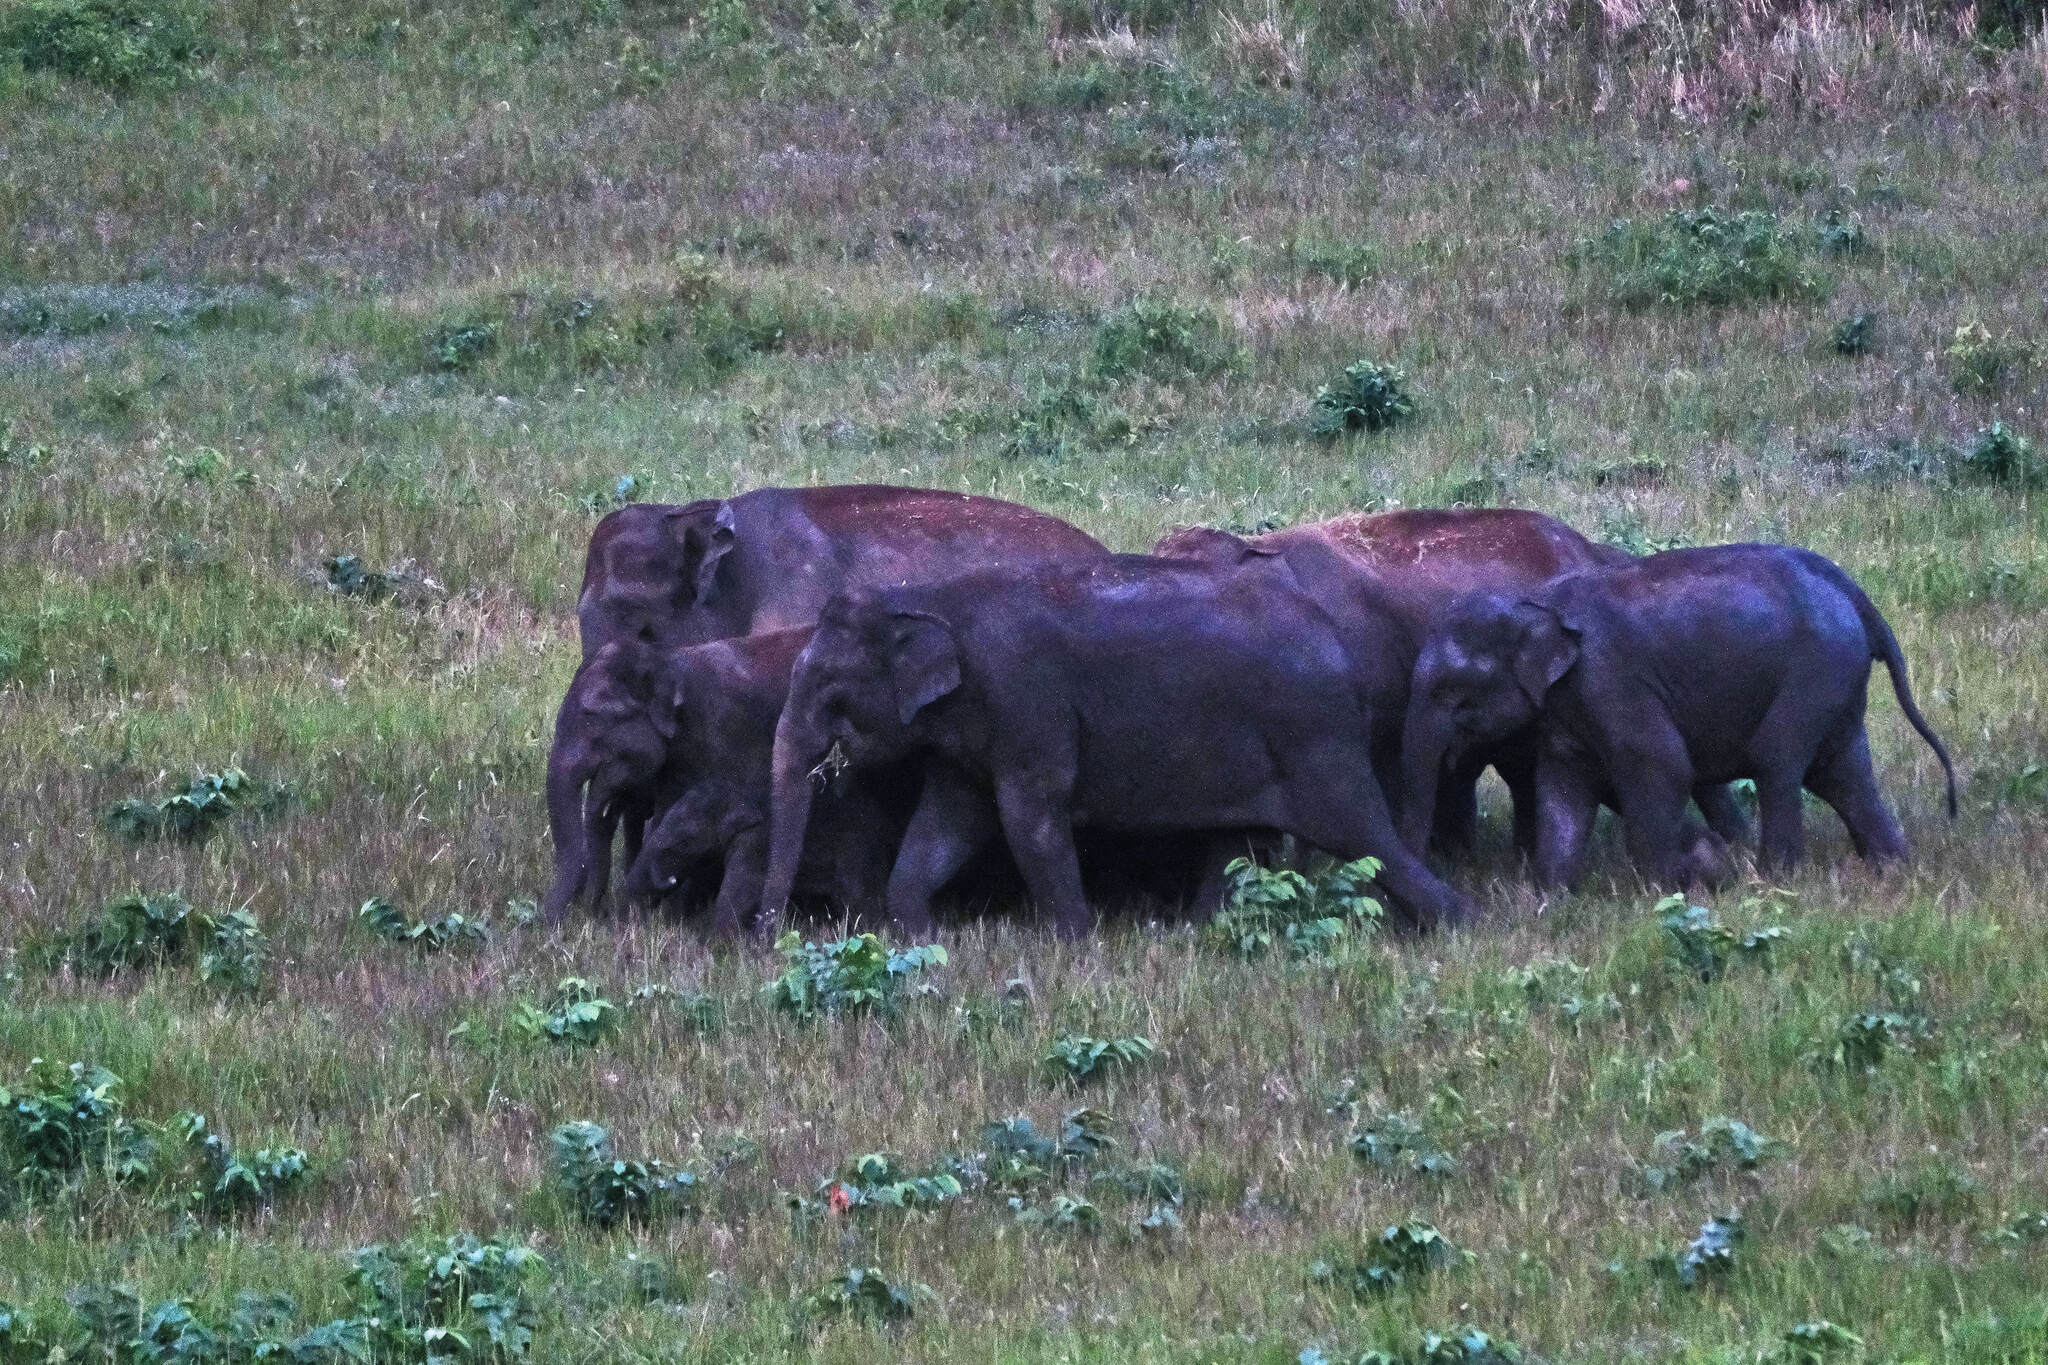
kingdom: Animalia
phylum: Chordata
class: Mammalia
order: Proboscidea
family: Elephantidae
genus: Elephas
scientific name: Elephas maximus
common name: Asian elephant
